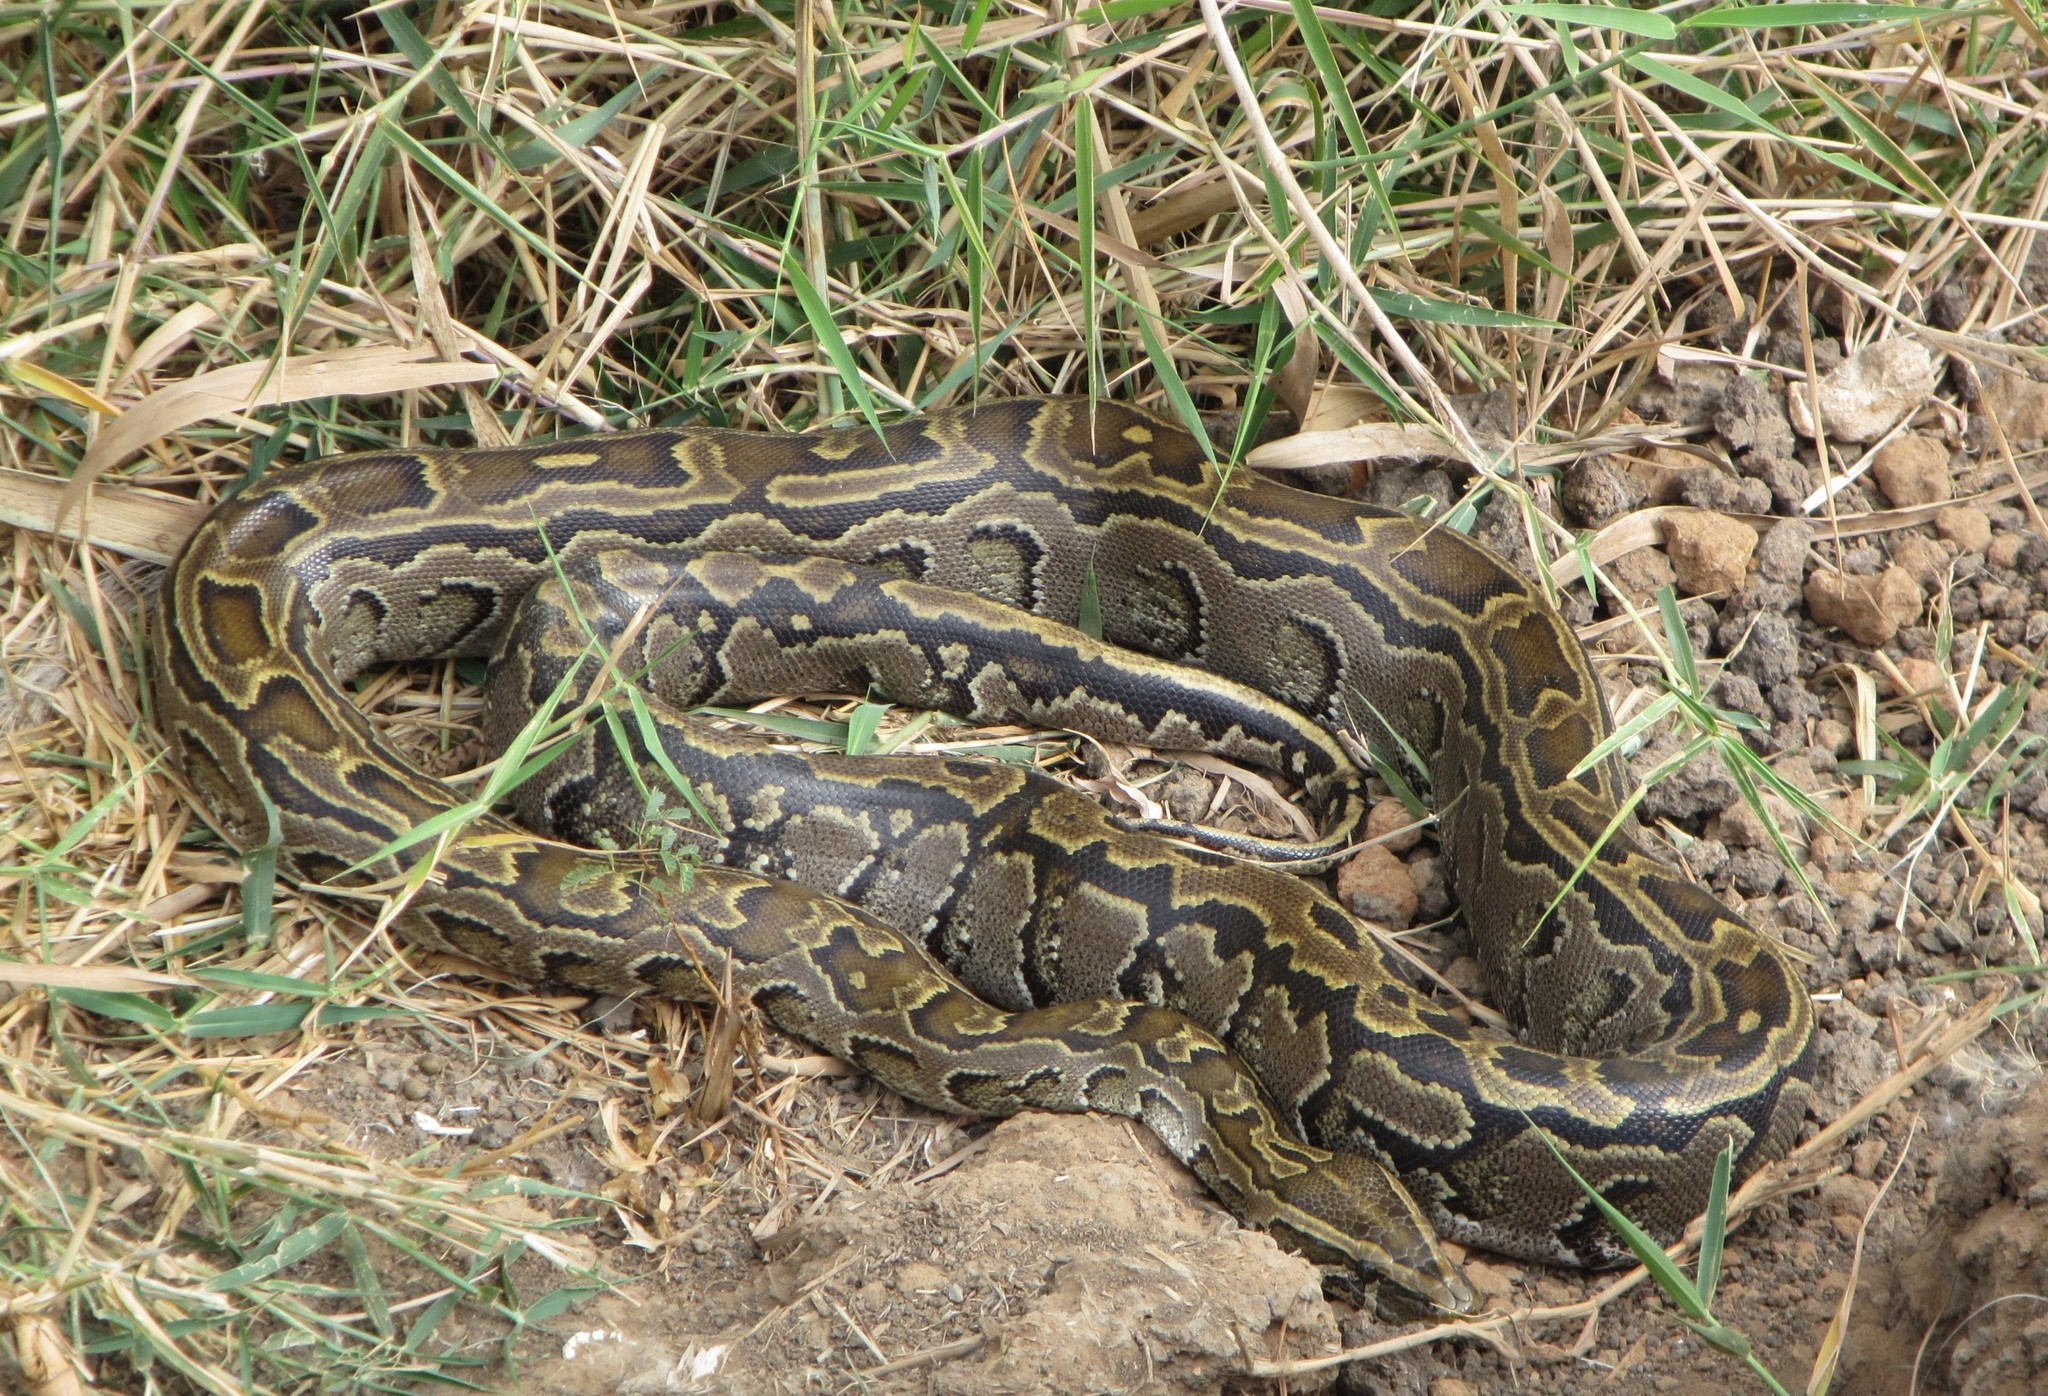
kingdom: Animalia
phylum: Chordata
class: Squamata
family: Pythonidae
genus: Python
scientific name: Python sebae
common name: African rock python
